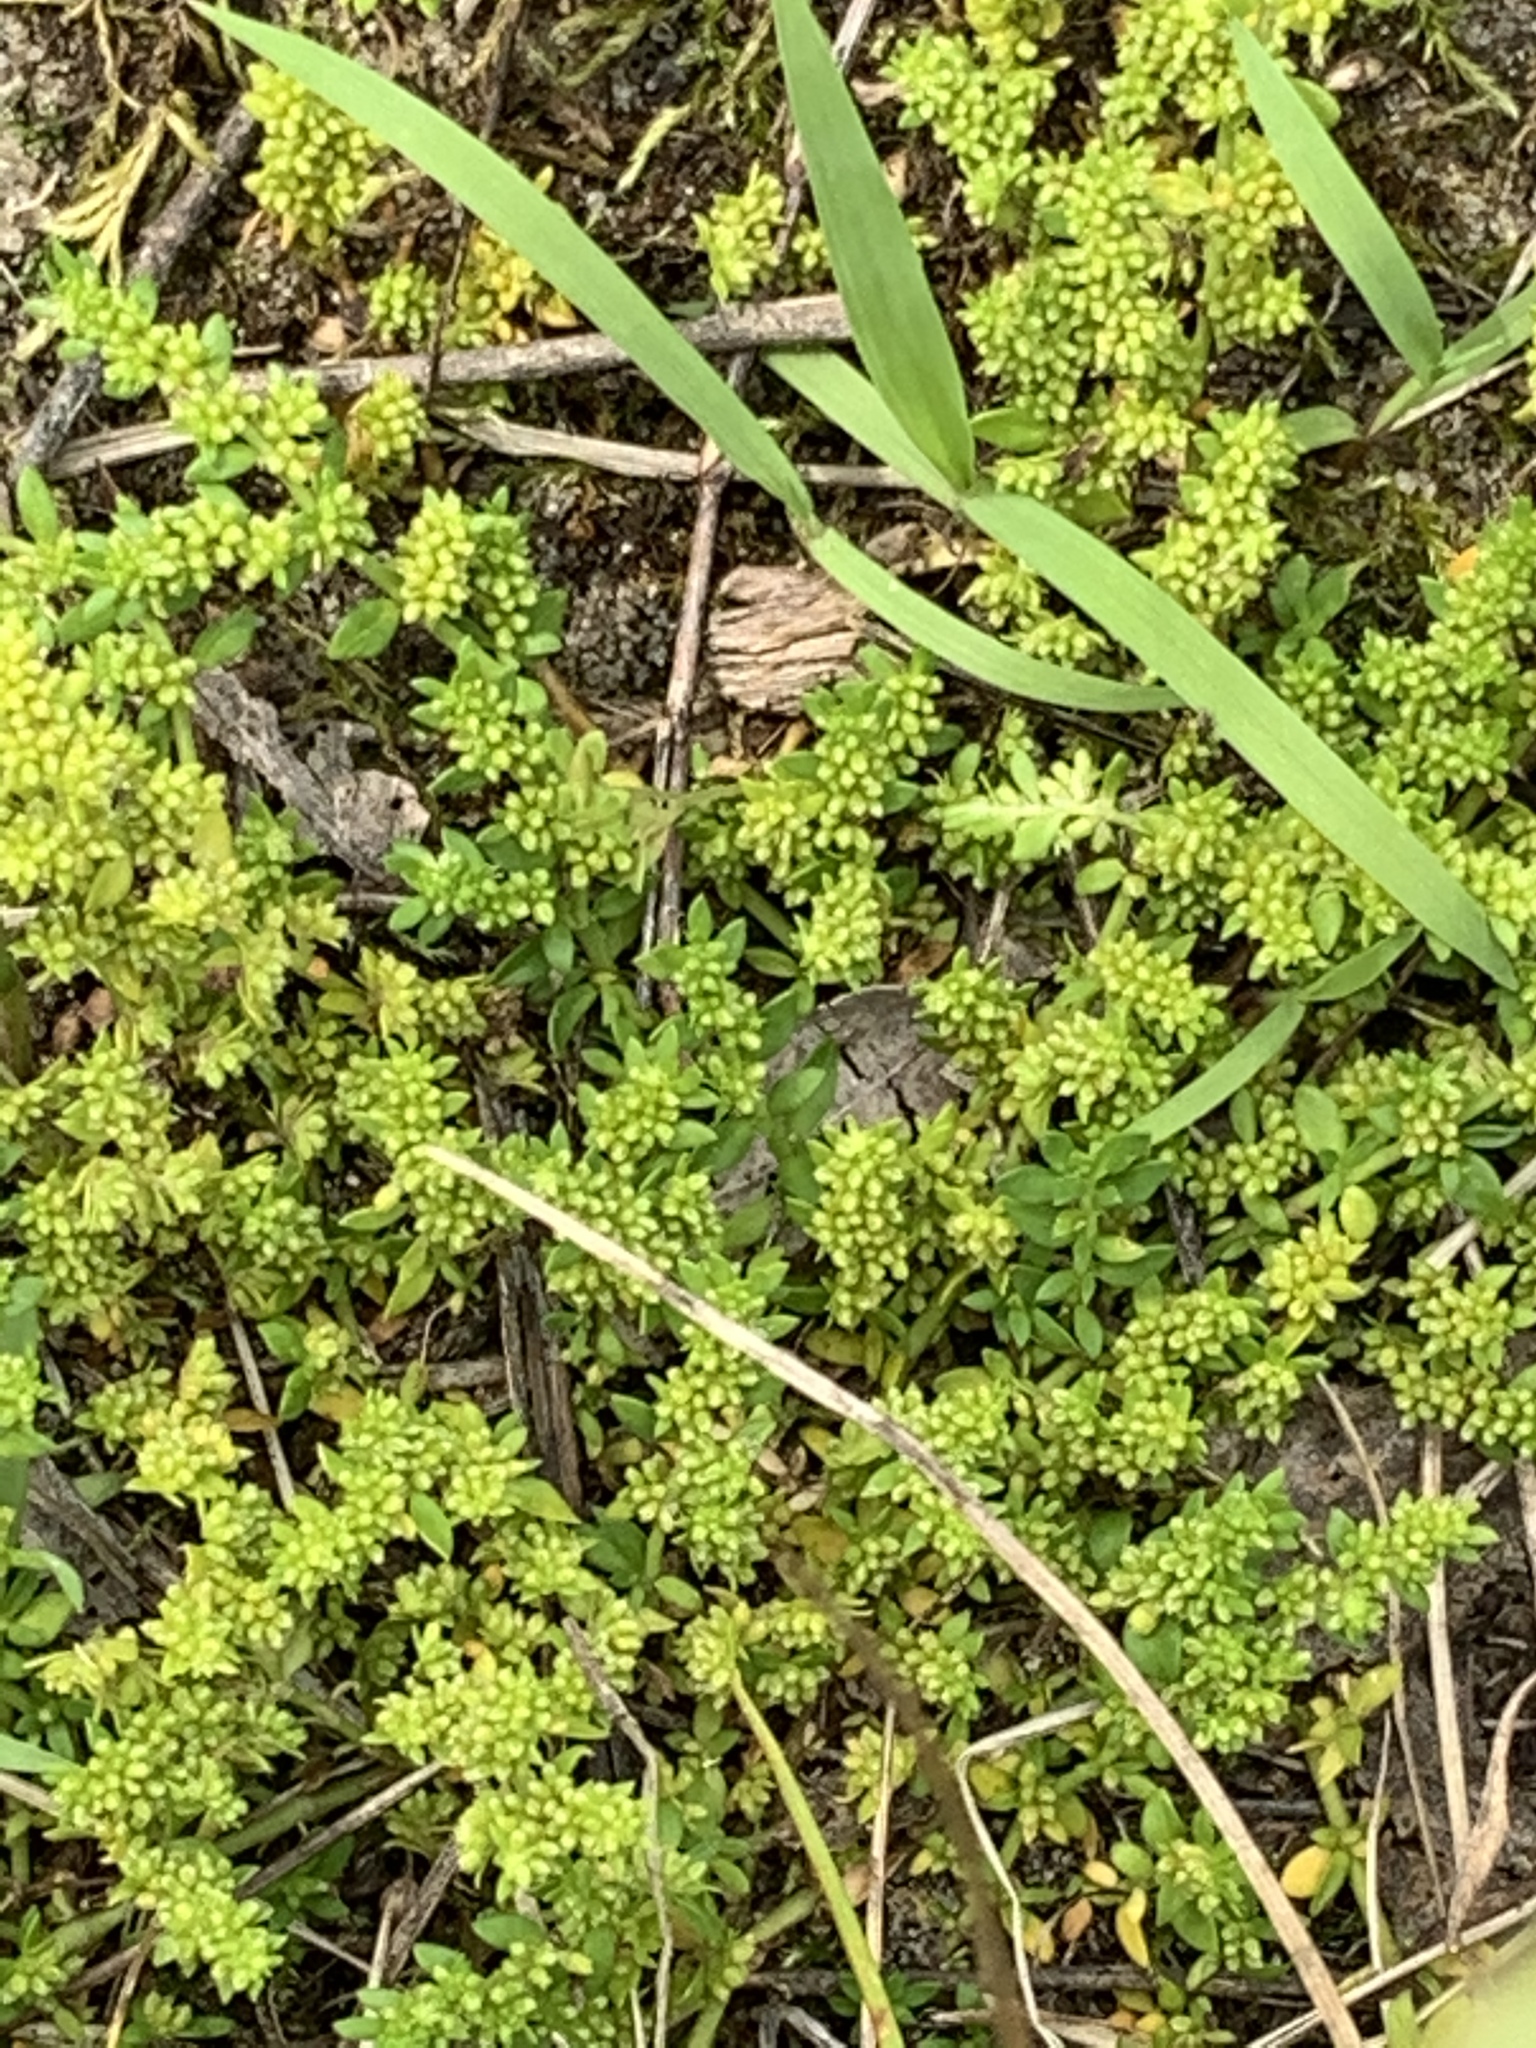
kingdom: Plantae
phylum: Tracheophyta
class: Magnoliopsida
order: Caryophyllales
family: Caryophyllaceae
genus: Herniaria
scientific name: Herniaria glabra
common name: Smooth rupturewort
